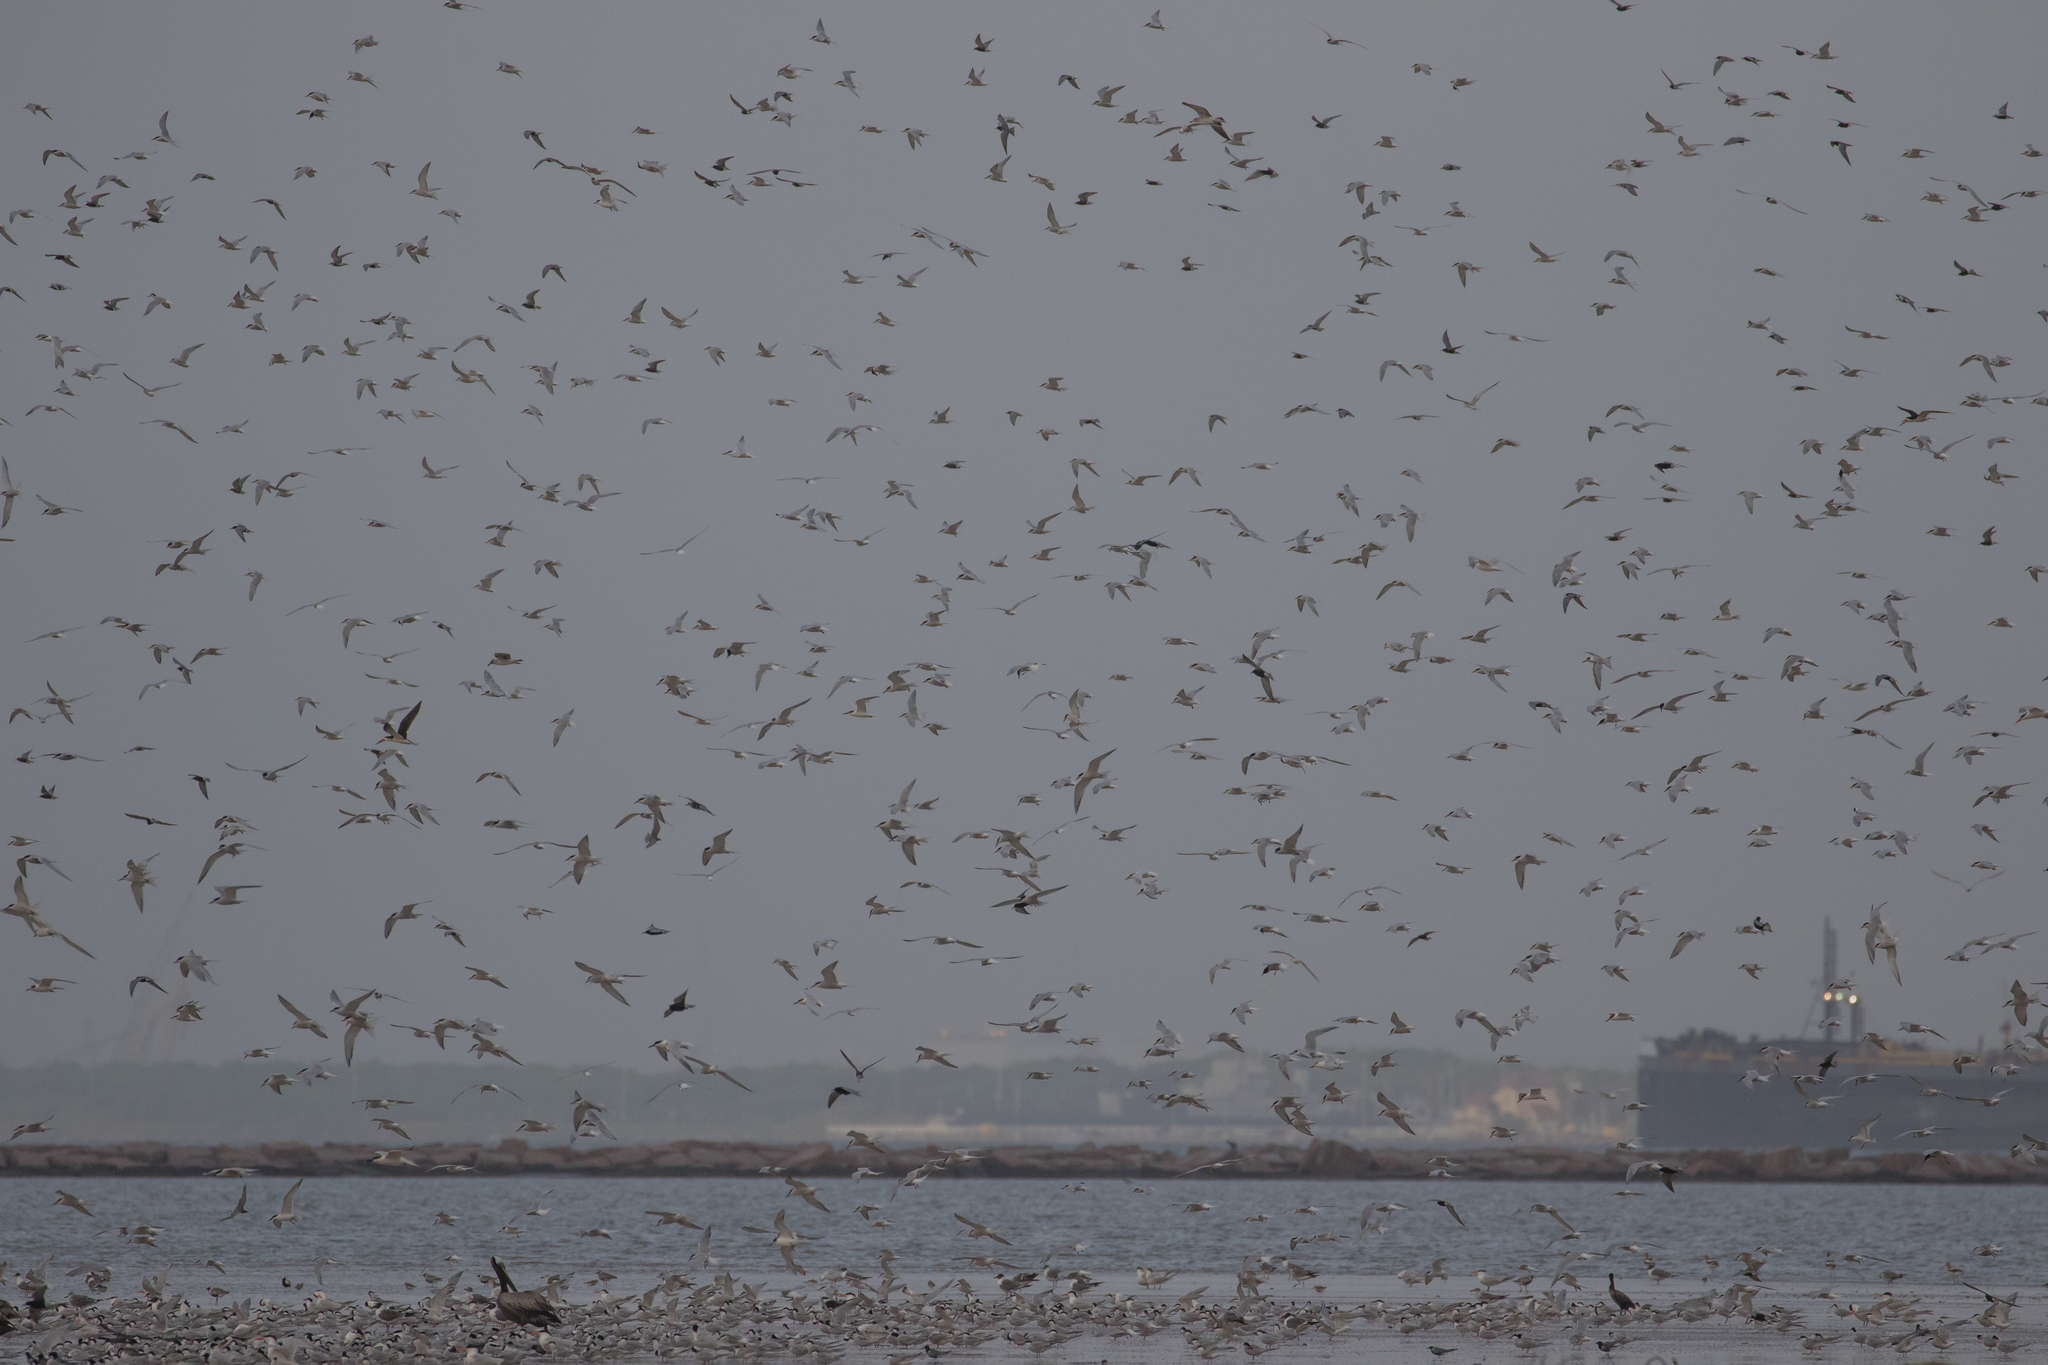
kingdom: Animalia
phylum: Chordata
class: Aves
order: Charadriiformes
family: Laridae
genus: Sterna
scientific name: Sterna hirundo
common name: Common tern
